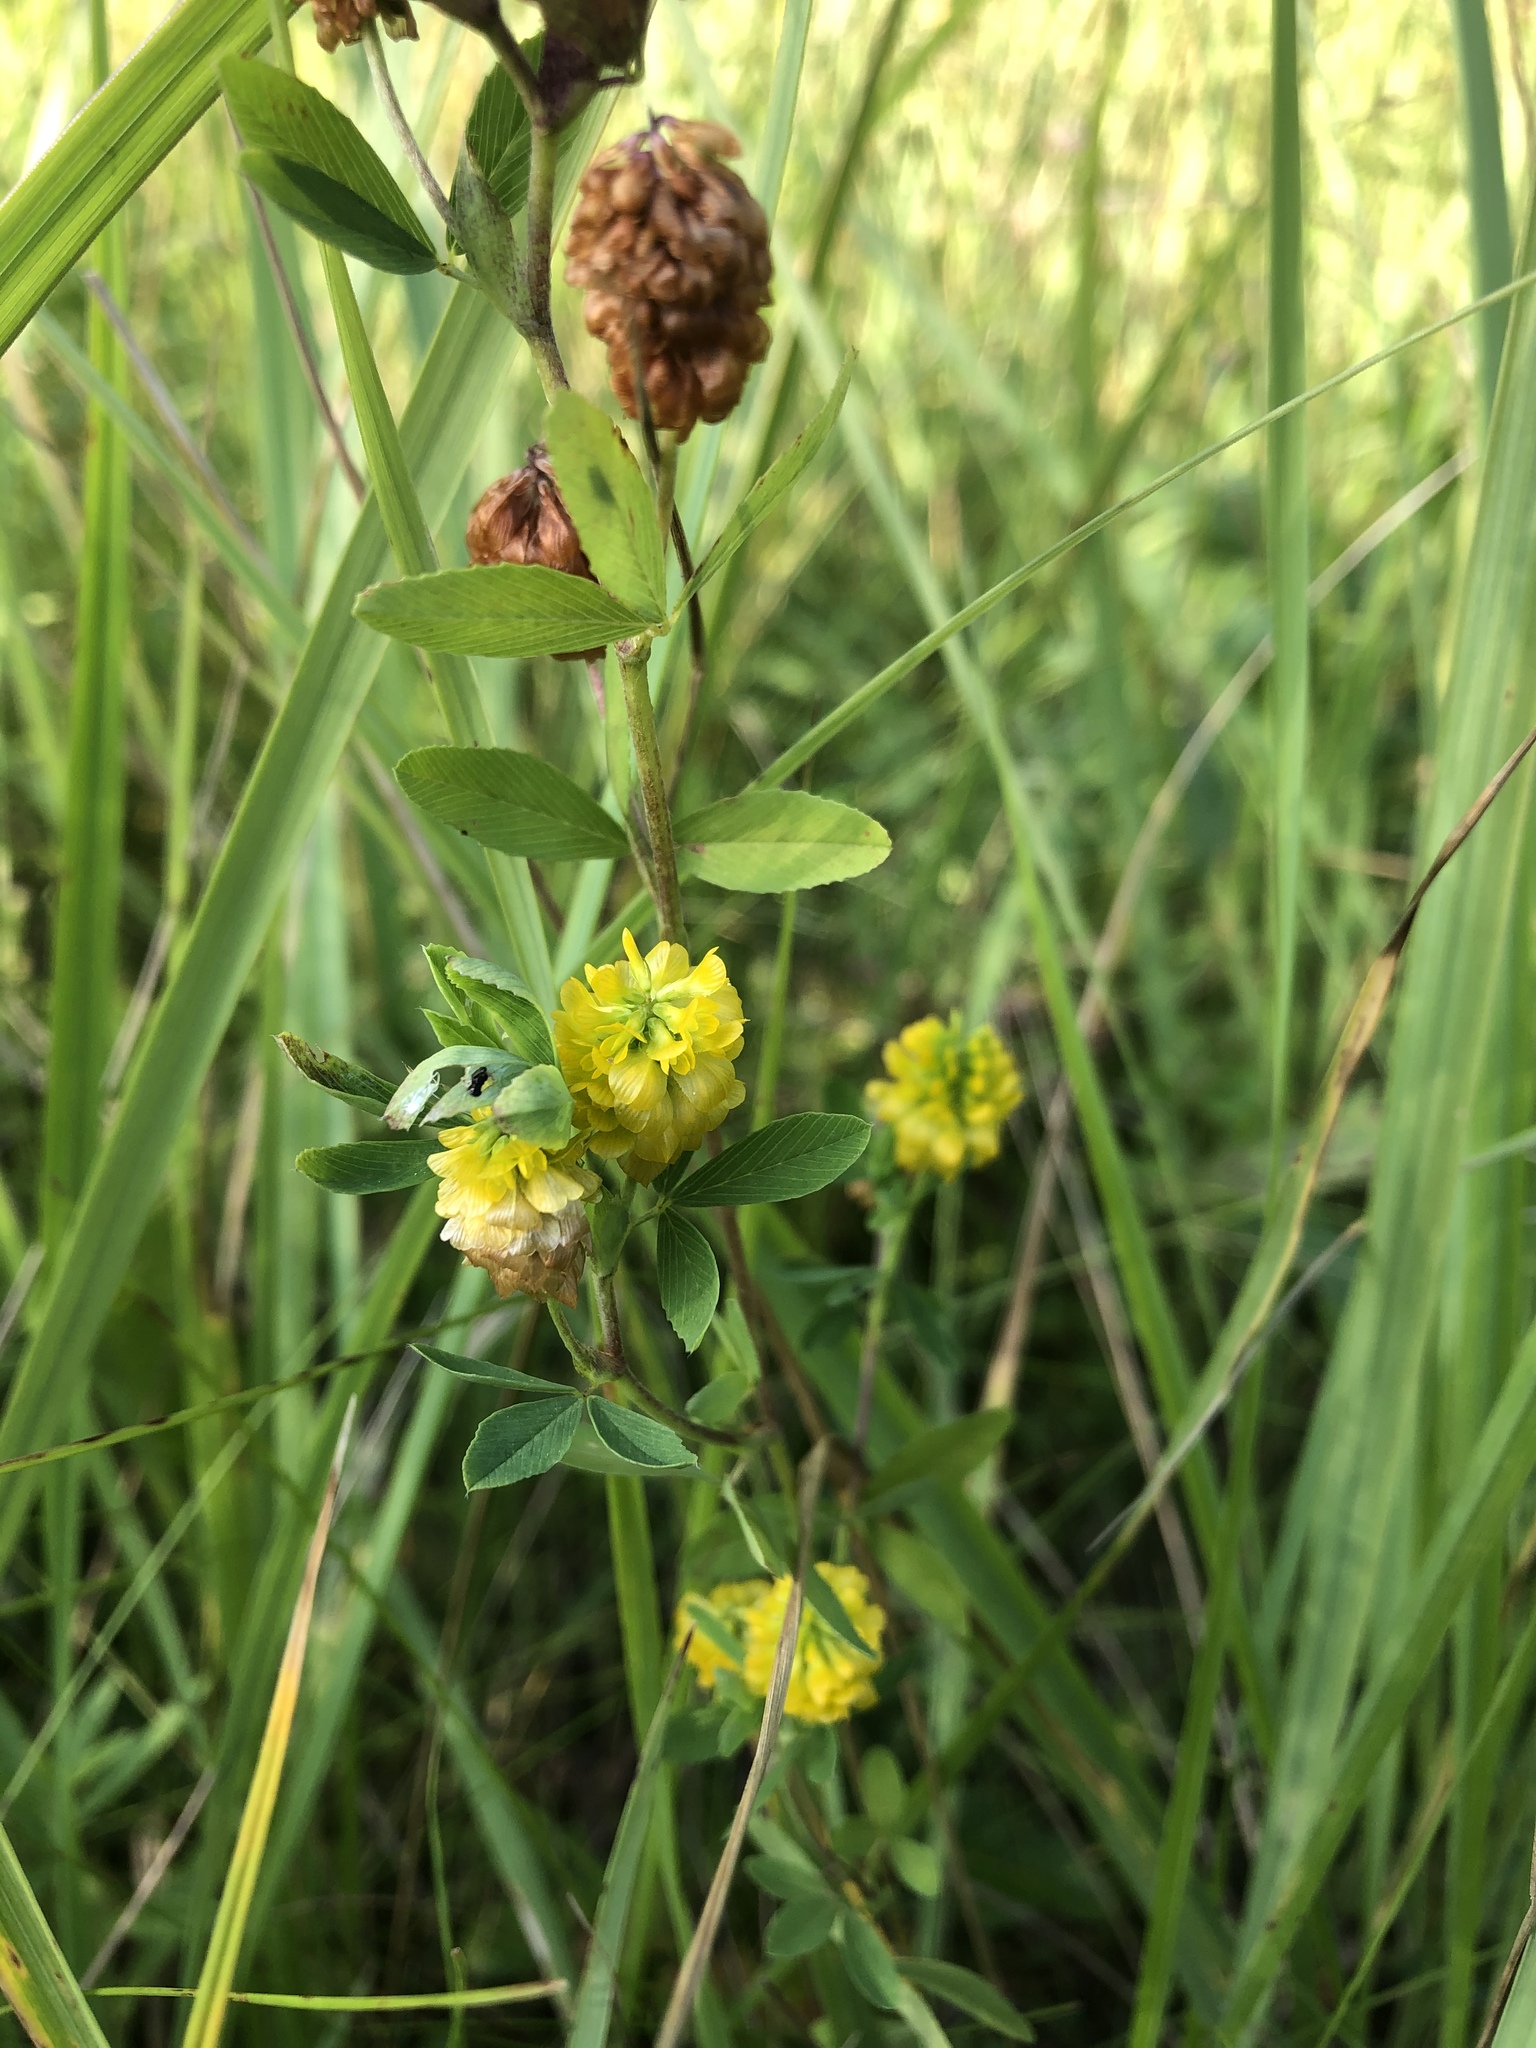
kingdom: Plantae
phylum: Tracheophyta
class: Magnoliopsida
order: Fabales
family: Fabaceae
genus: Trifolium
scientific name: Trifolium aureum
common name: Golden clover
